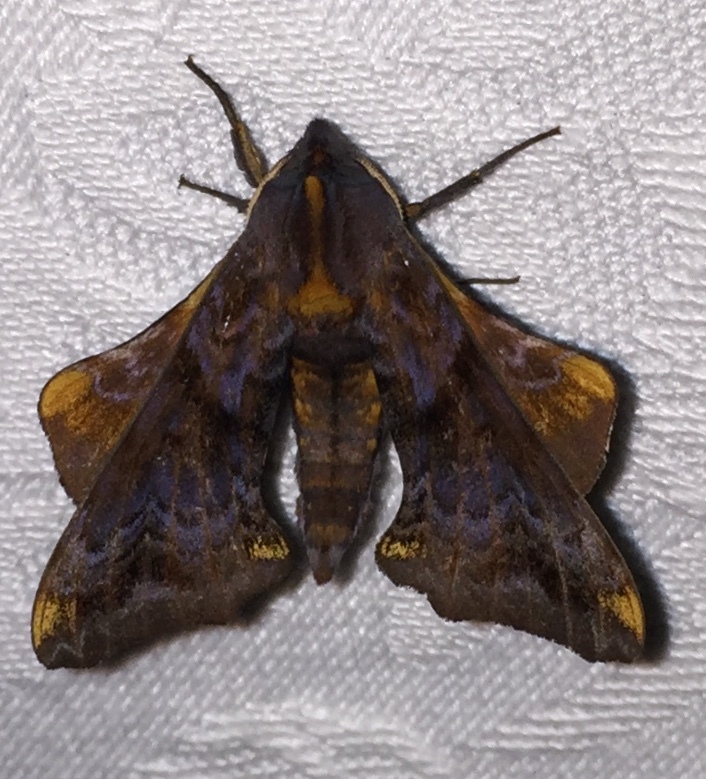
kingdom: Animalia
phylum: Arthropoda
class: Insecta
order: Lepidoptera
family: Sphingidae
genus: Paonias
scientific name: Paonias myops
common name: Small-eyed sphinx
